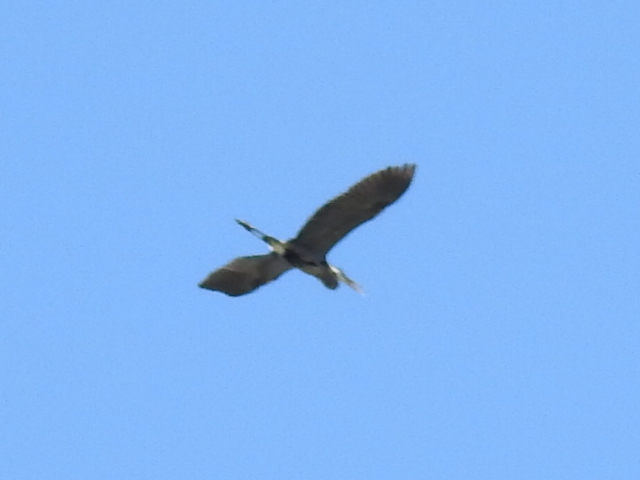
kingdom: Animalia
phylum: Chordata
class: Aves
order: Pelecaniformes
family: Ardeidae
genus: Ardea
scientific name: Ardea herodias
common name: Great blue heron
